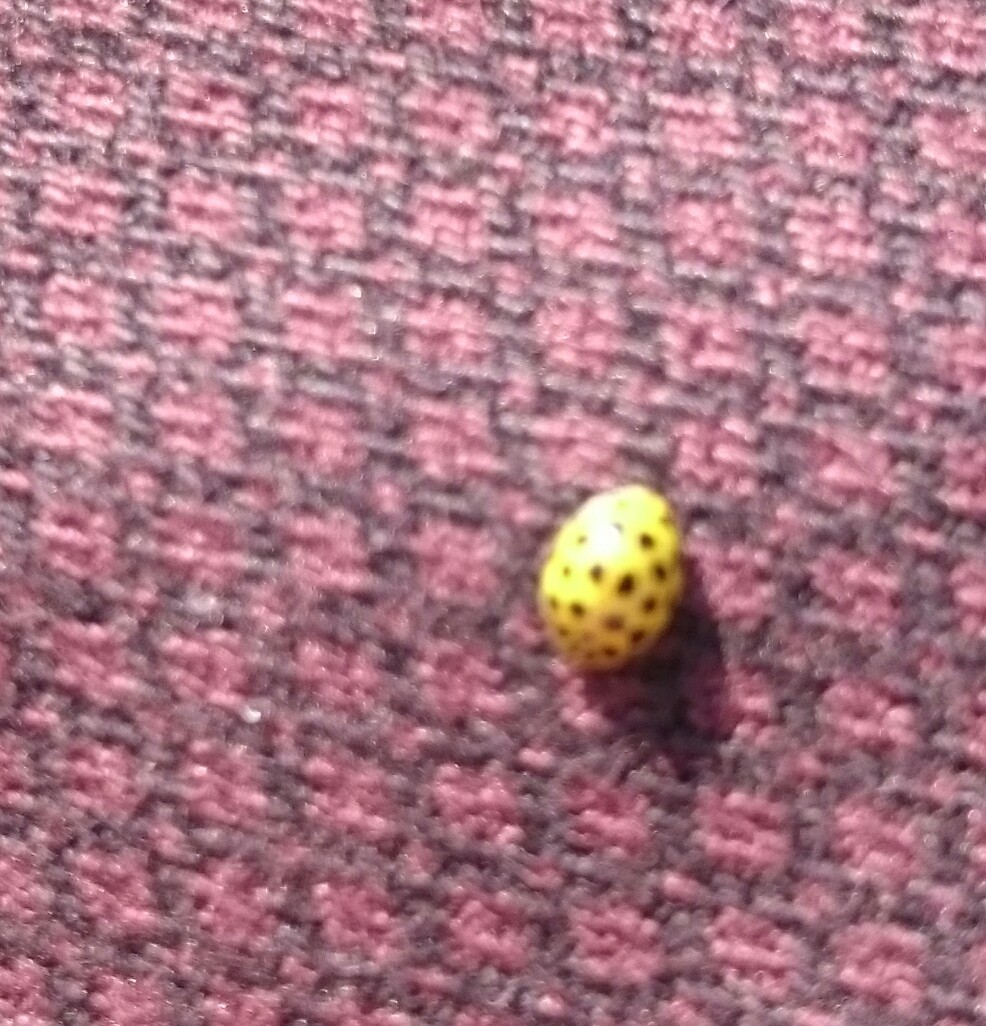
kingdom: Animalia
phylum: Arthropoda
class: Insecta
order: Coleoptera
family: Coccinellidae
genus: Psyllobora
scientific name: Psyllobora vigintiduopunctata
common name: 22-spot ladybird
